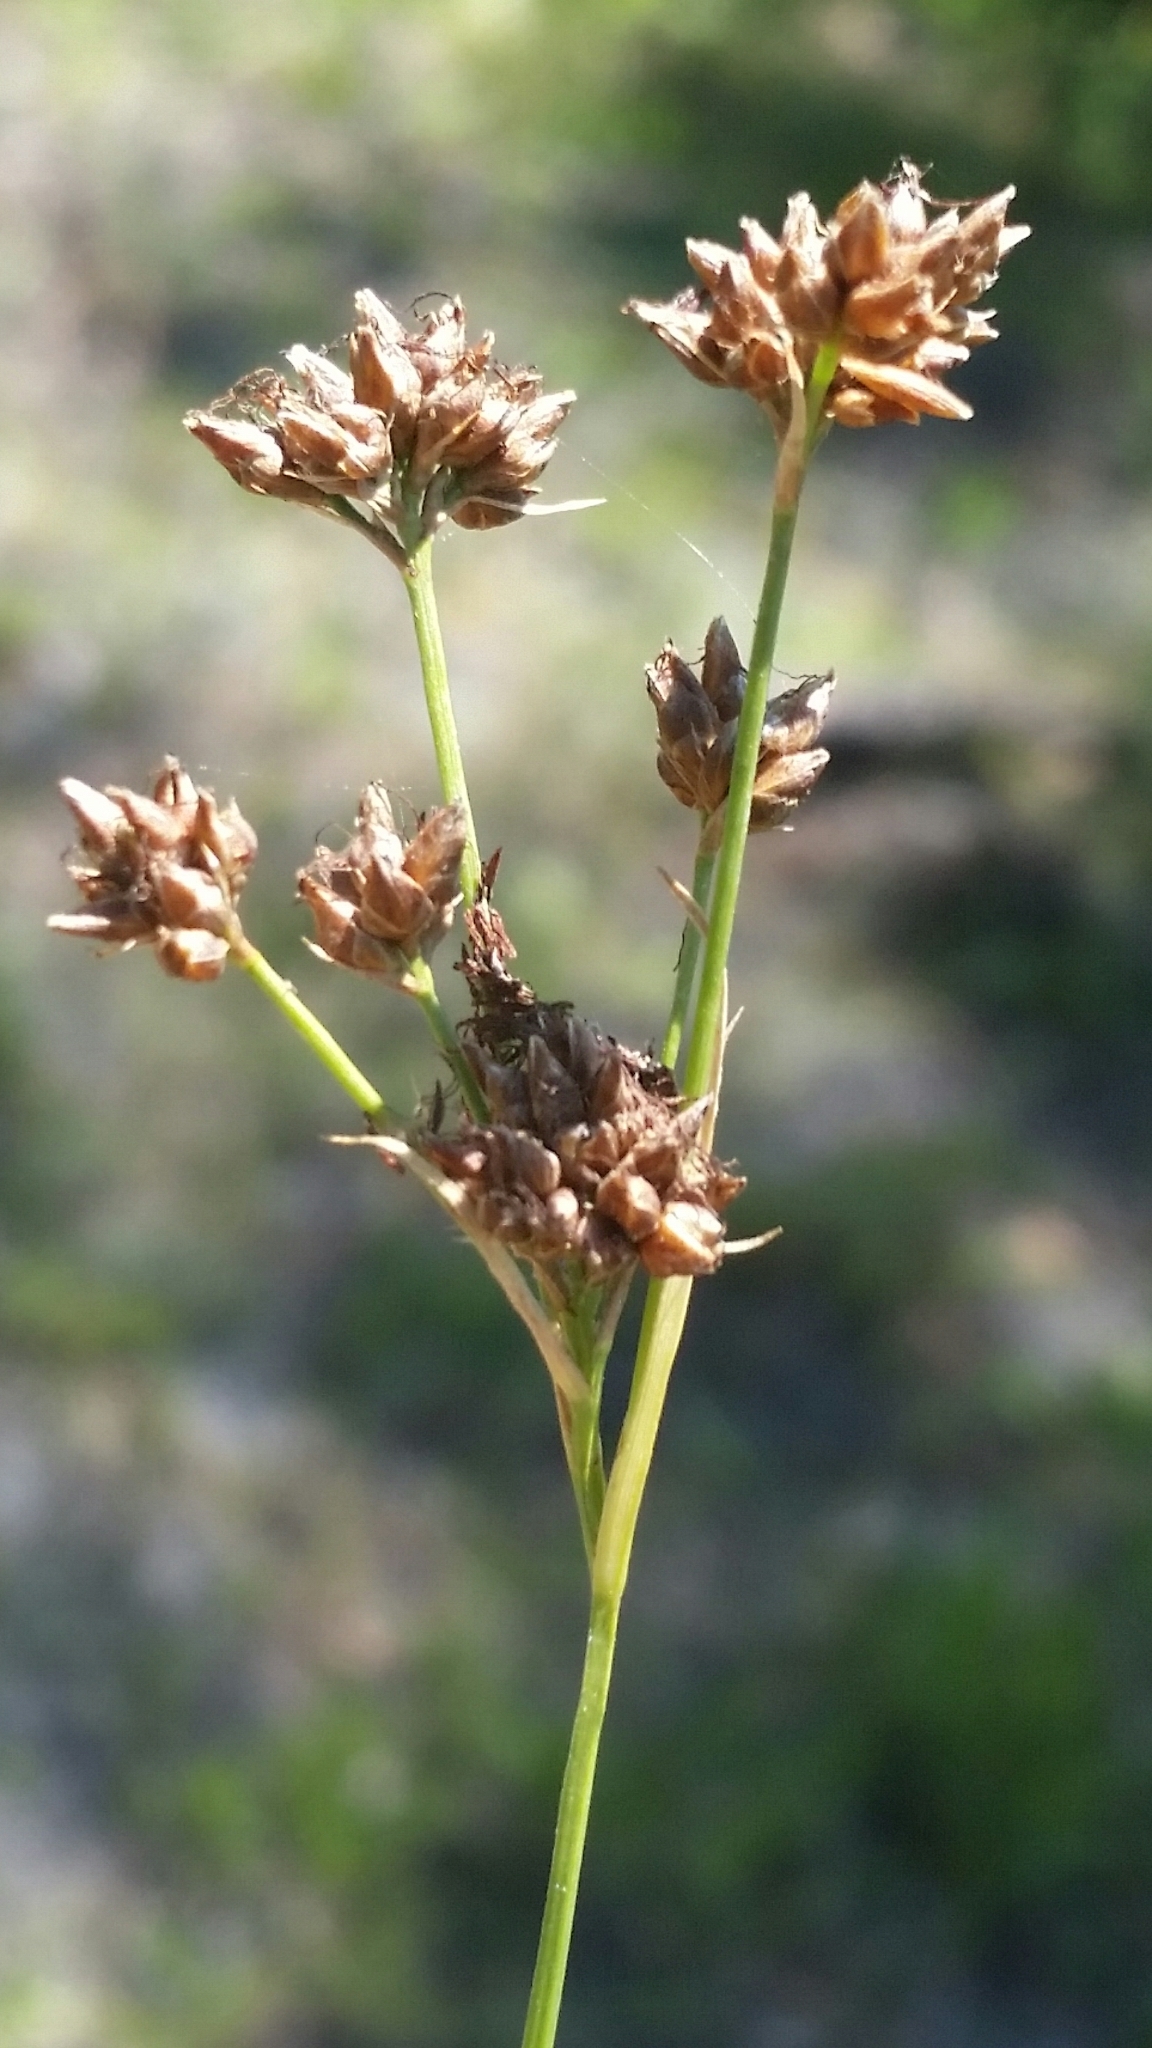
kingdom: Plantae
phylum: Tracheophyta
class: Liliopsida
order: Poales
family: Cyperaceae
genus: Rhynchospora
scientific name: Rhynchospora recognita
